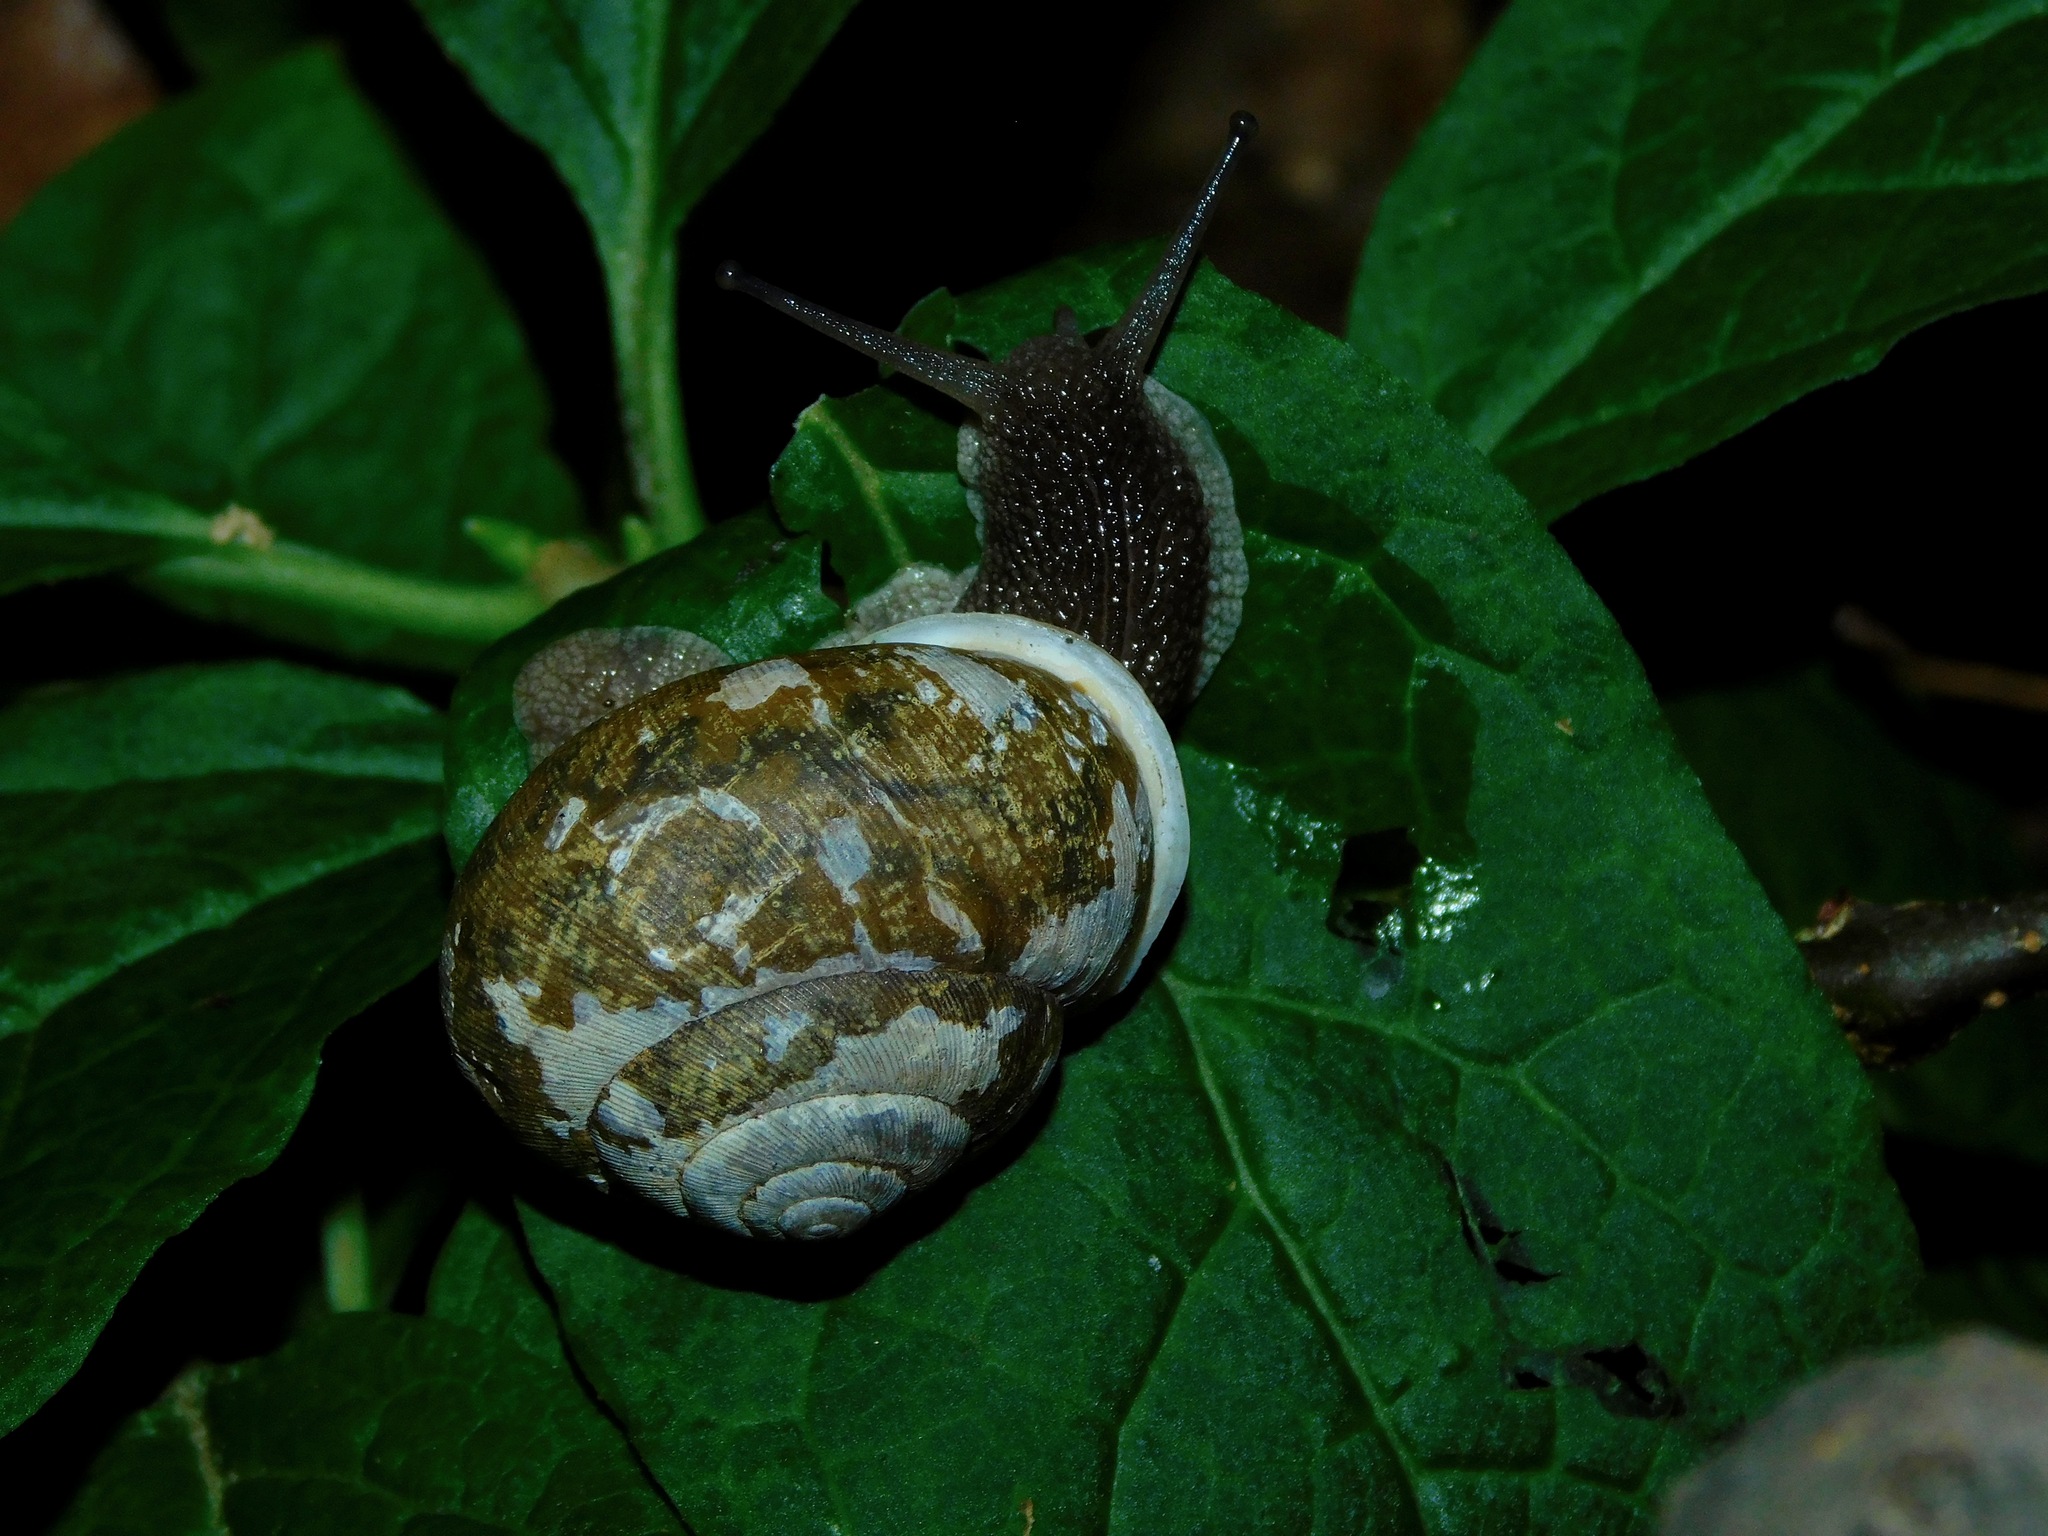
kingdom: Animalia
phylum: Mollusca
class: Gastropoda
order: Stylommatophora
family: Polygyridae
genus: Mesodon
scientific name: Mesodon normalis
